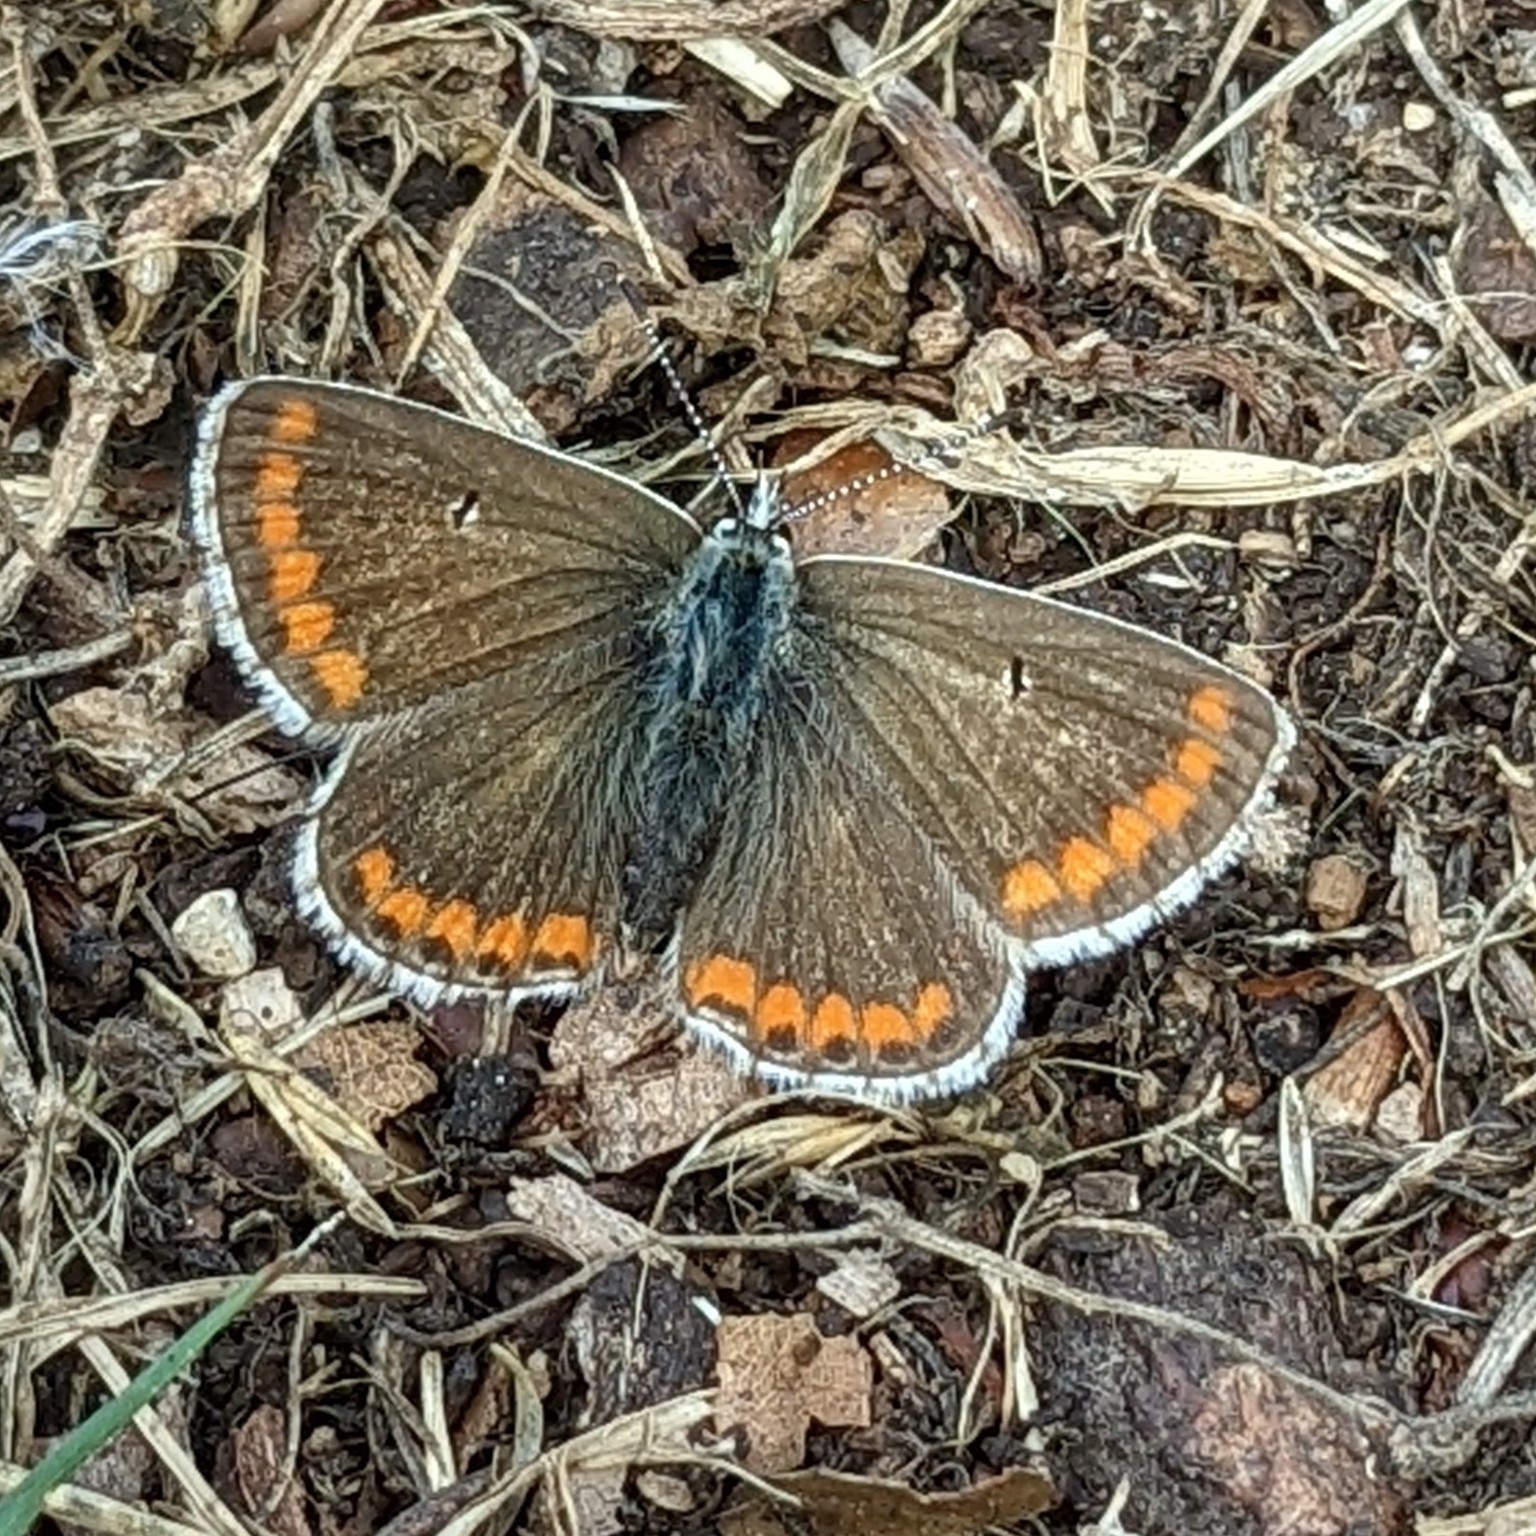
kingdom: Animalia
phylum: Arthropoda
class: Insecta
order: Lepidoptera
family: Lycaenidae
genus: Aricia
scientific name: Aricia agestis
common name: Brown argus
